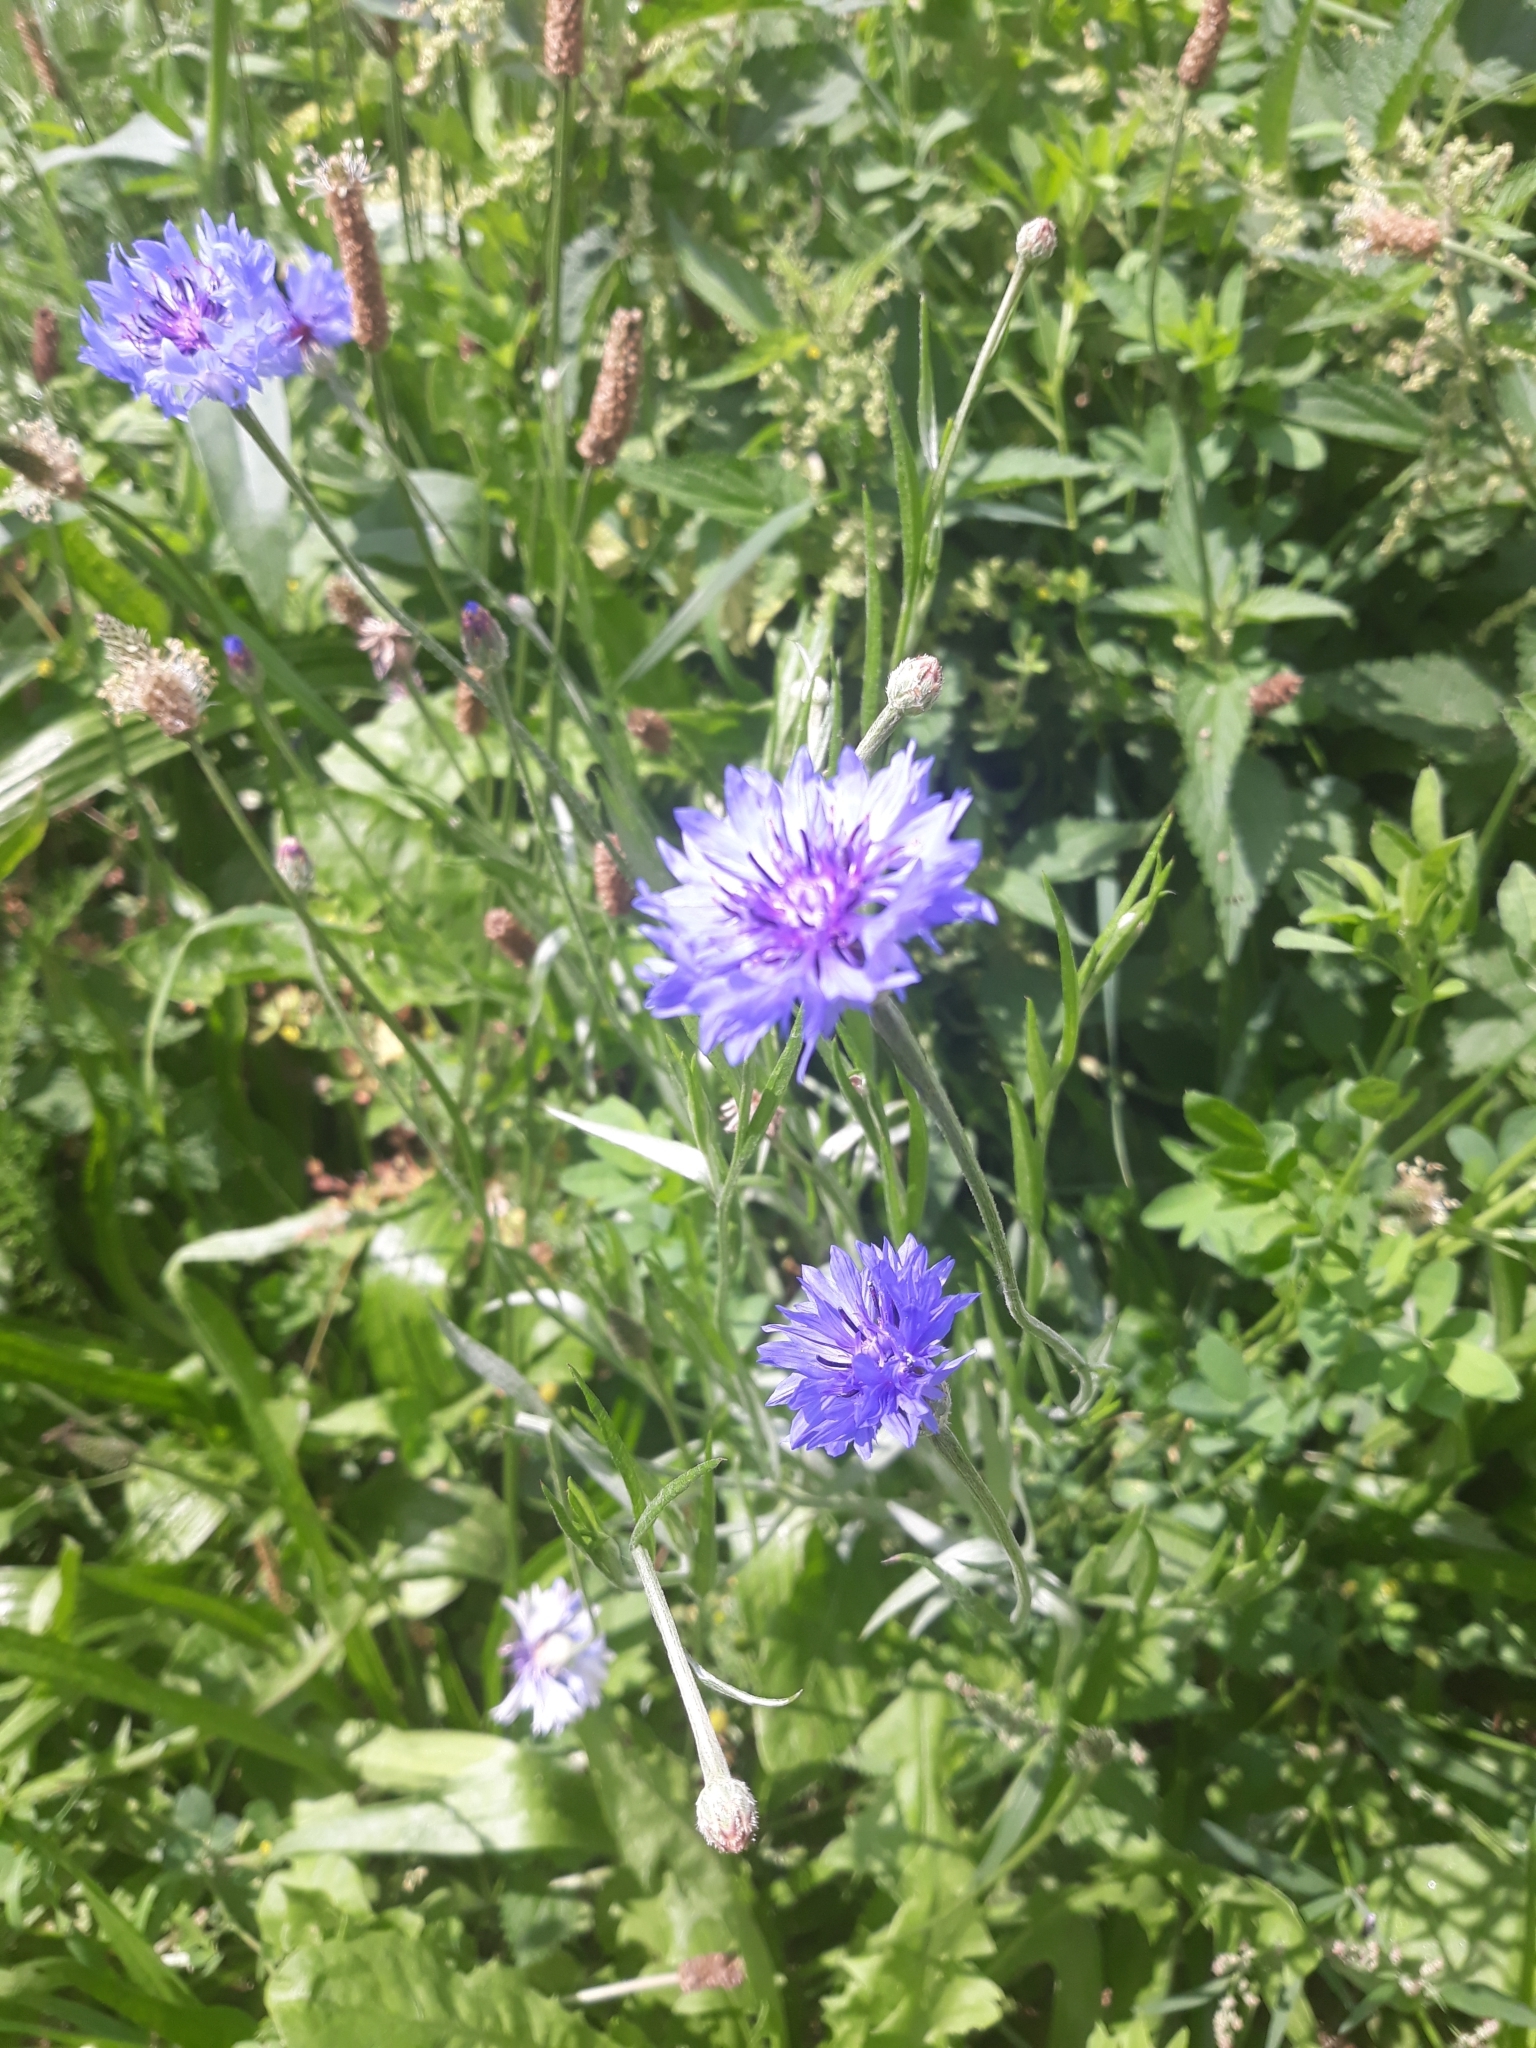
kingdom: Plantae
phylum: Tracheophyta
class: Magnoliopsida
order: Asterales
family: Asteraceae
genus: Centaurea
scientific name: Centaurea cyanus
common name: Cornflower
